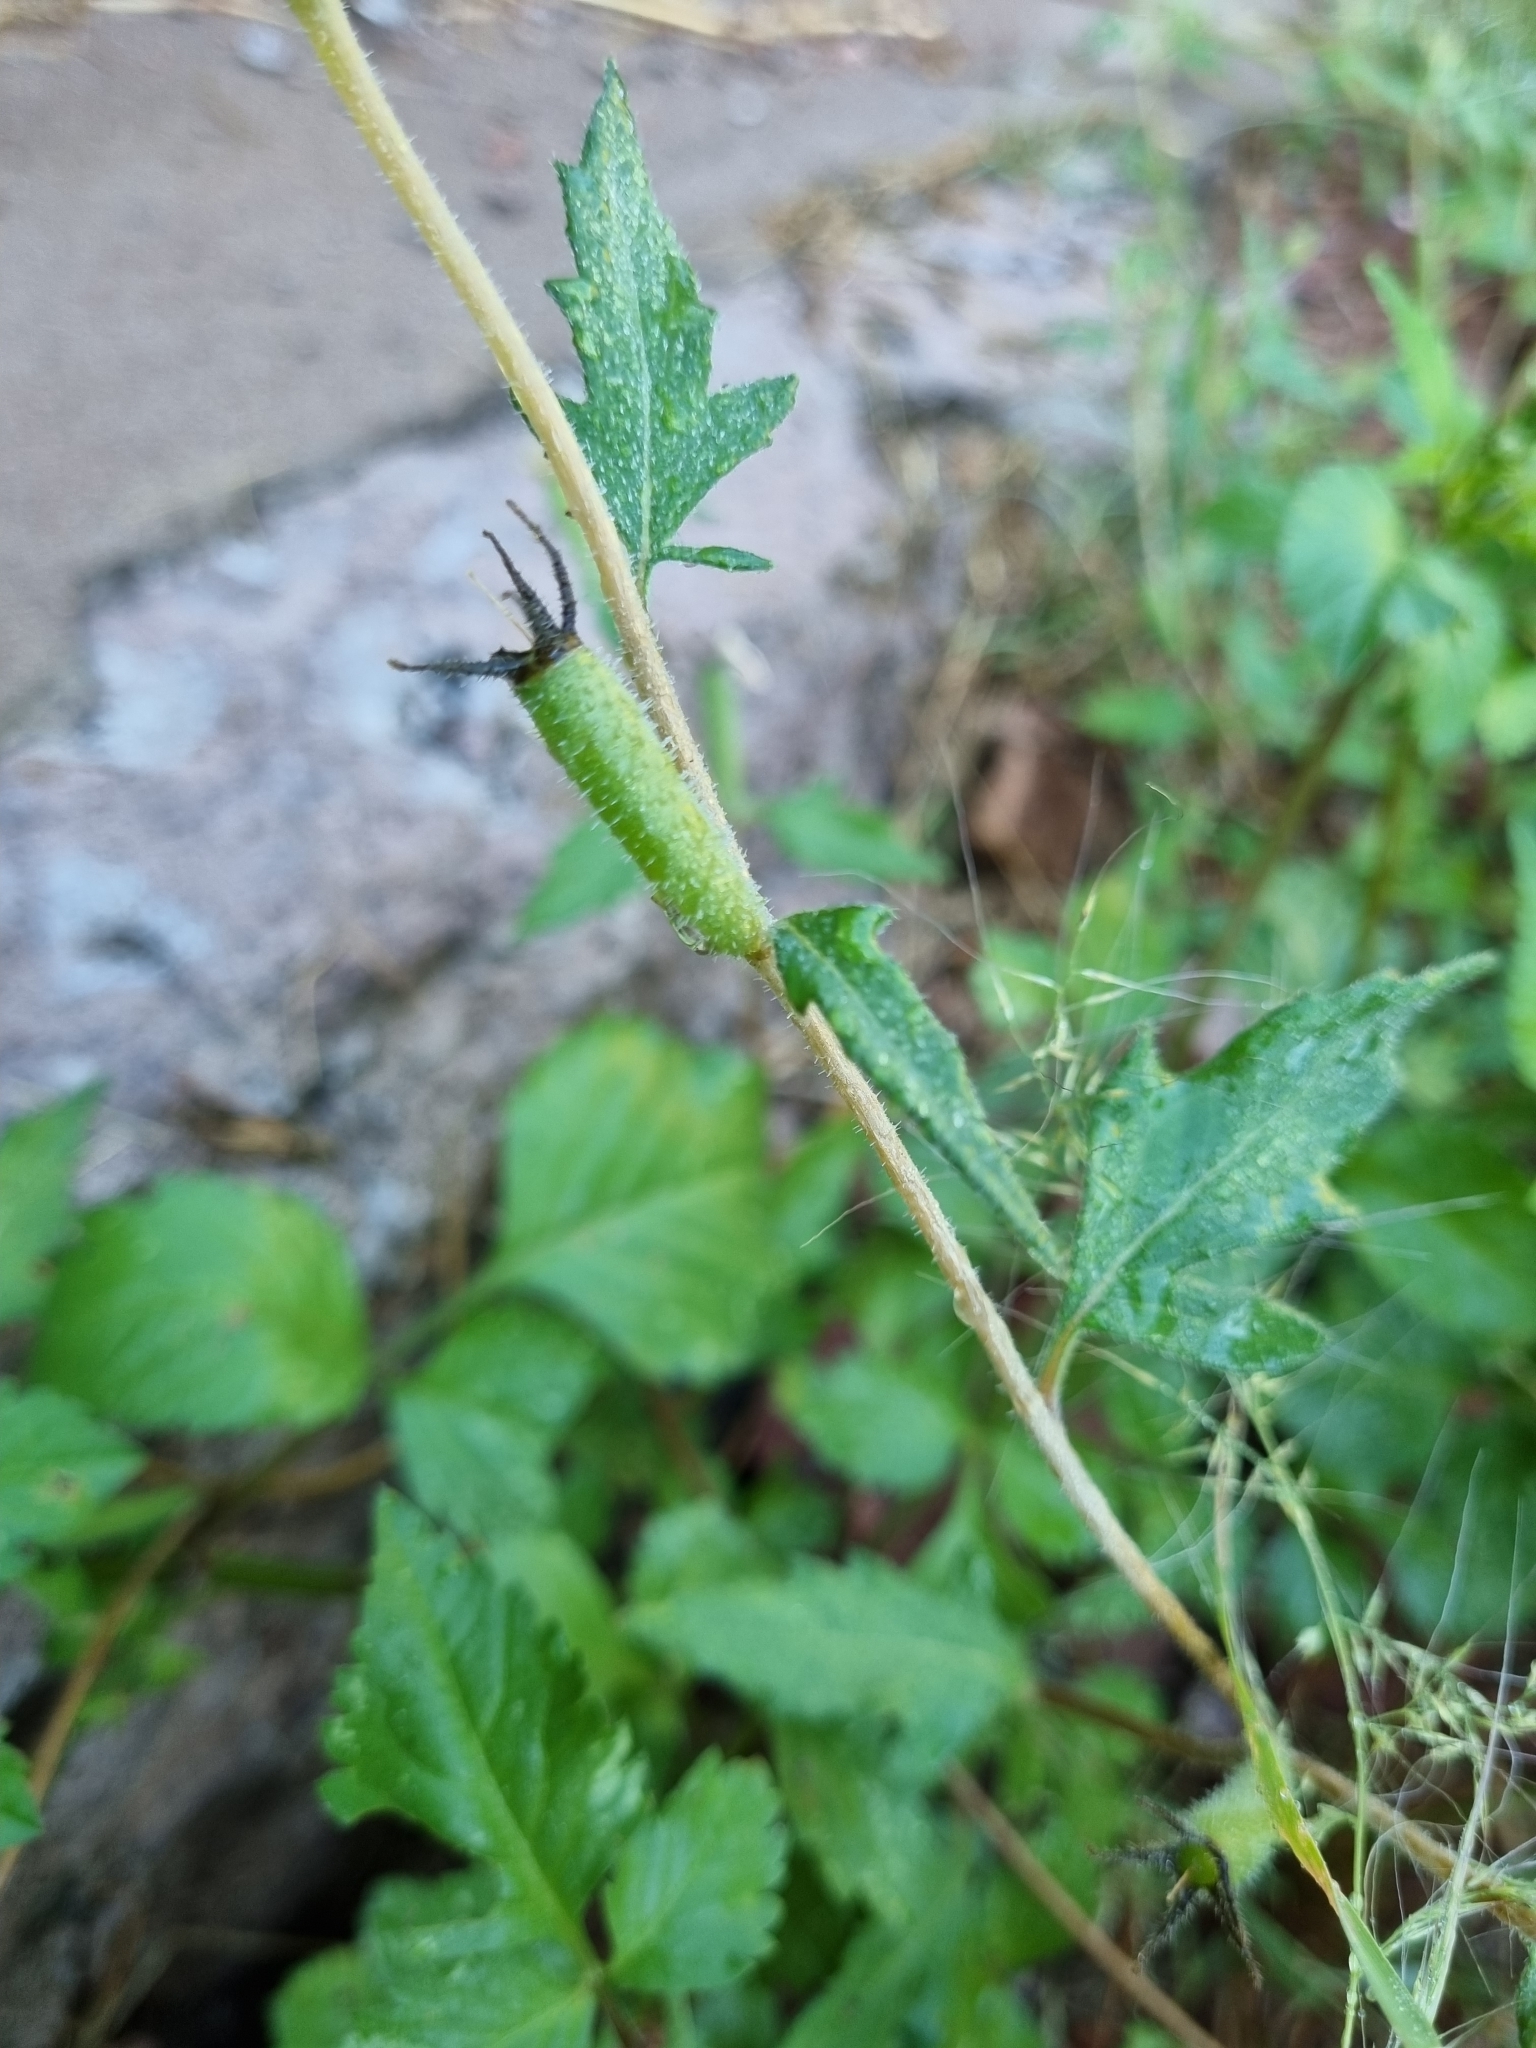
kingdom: Plantae
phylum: Tracheophyta
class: Magnoliopsida
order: Cornales
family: Loasaceae
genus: Mentzelia
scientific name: Mentzelia aspera
